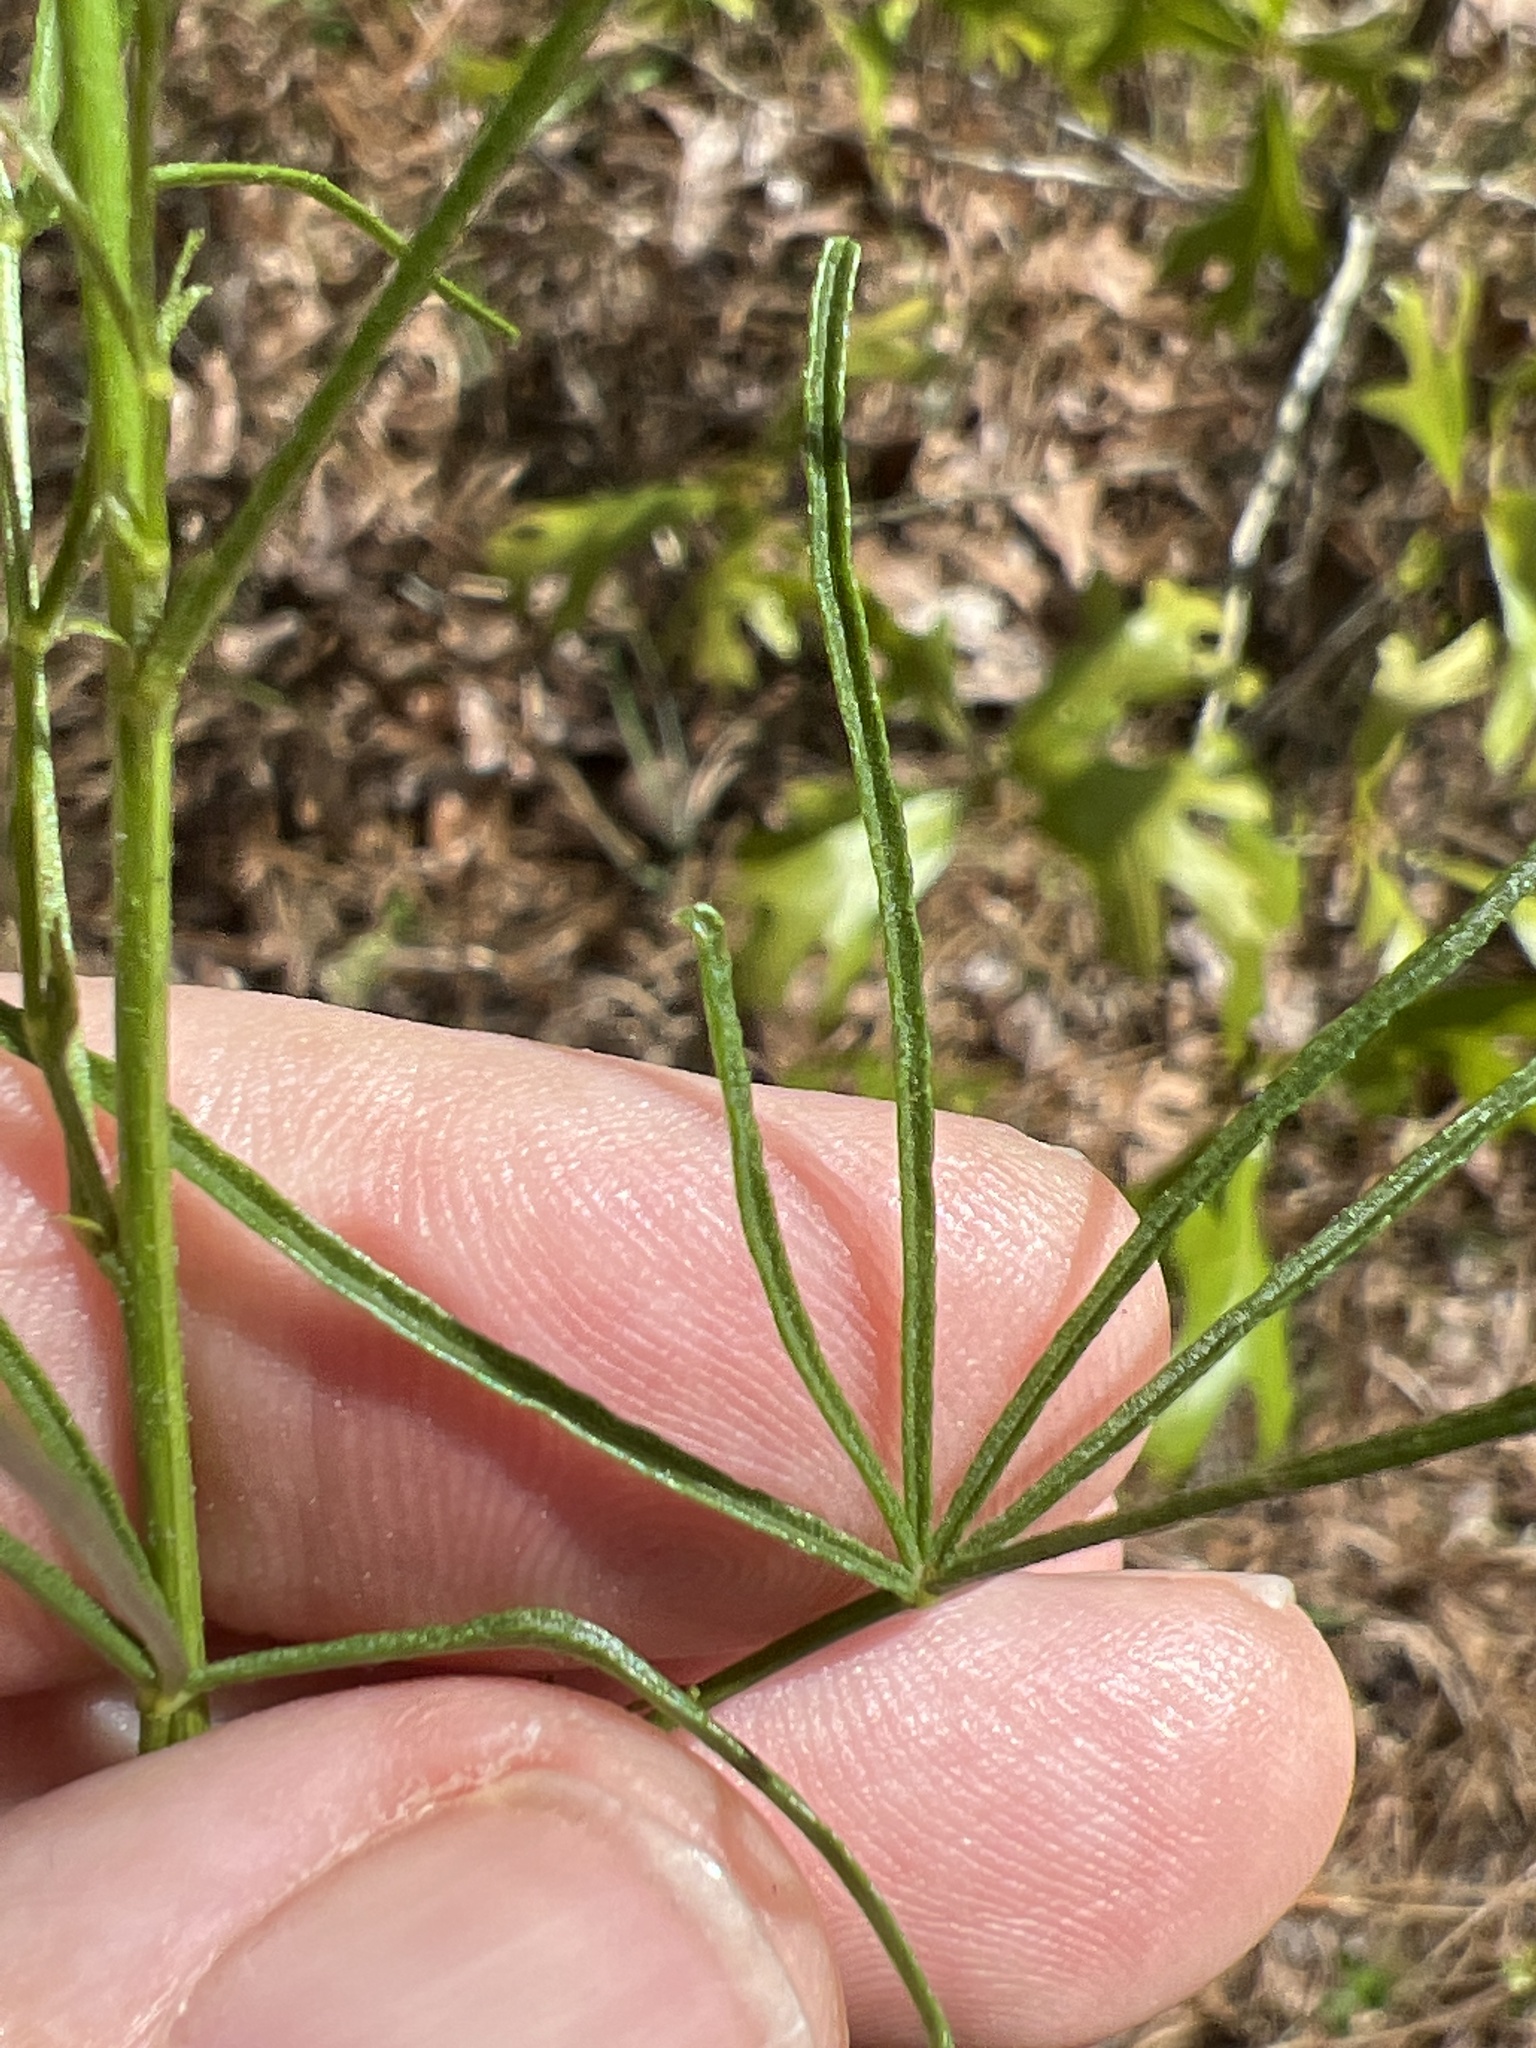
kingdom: Plantae
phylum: Tracheophyta
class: Magnoliopsida
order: Fabales
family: Fabaceae
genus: Orbexilum
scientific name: Orbexilum lupinellus
